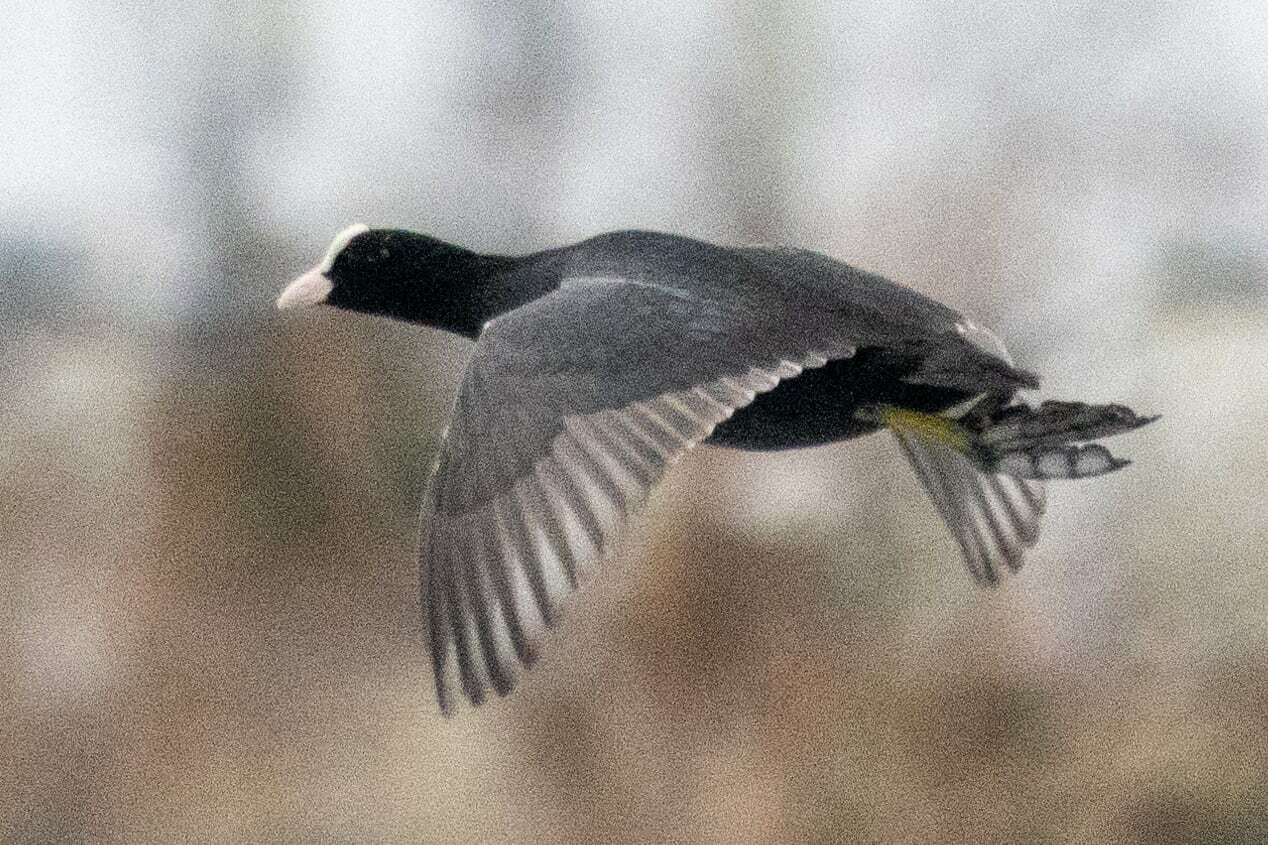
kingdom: Animalia
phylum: Chordata
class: Aves
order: Gruiformes
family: Rallidae
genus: Fulica
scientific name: Fulica atra
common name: Eurasian coot
